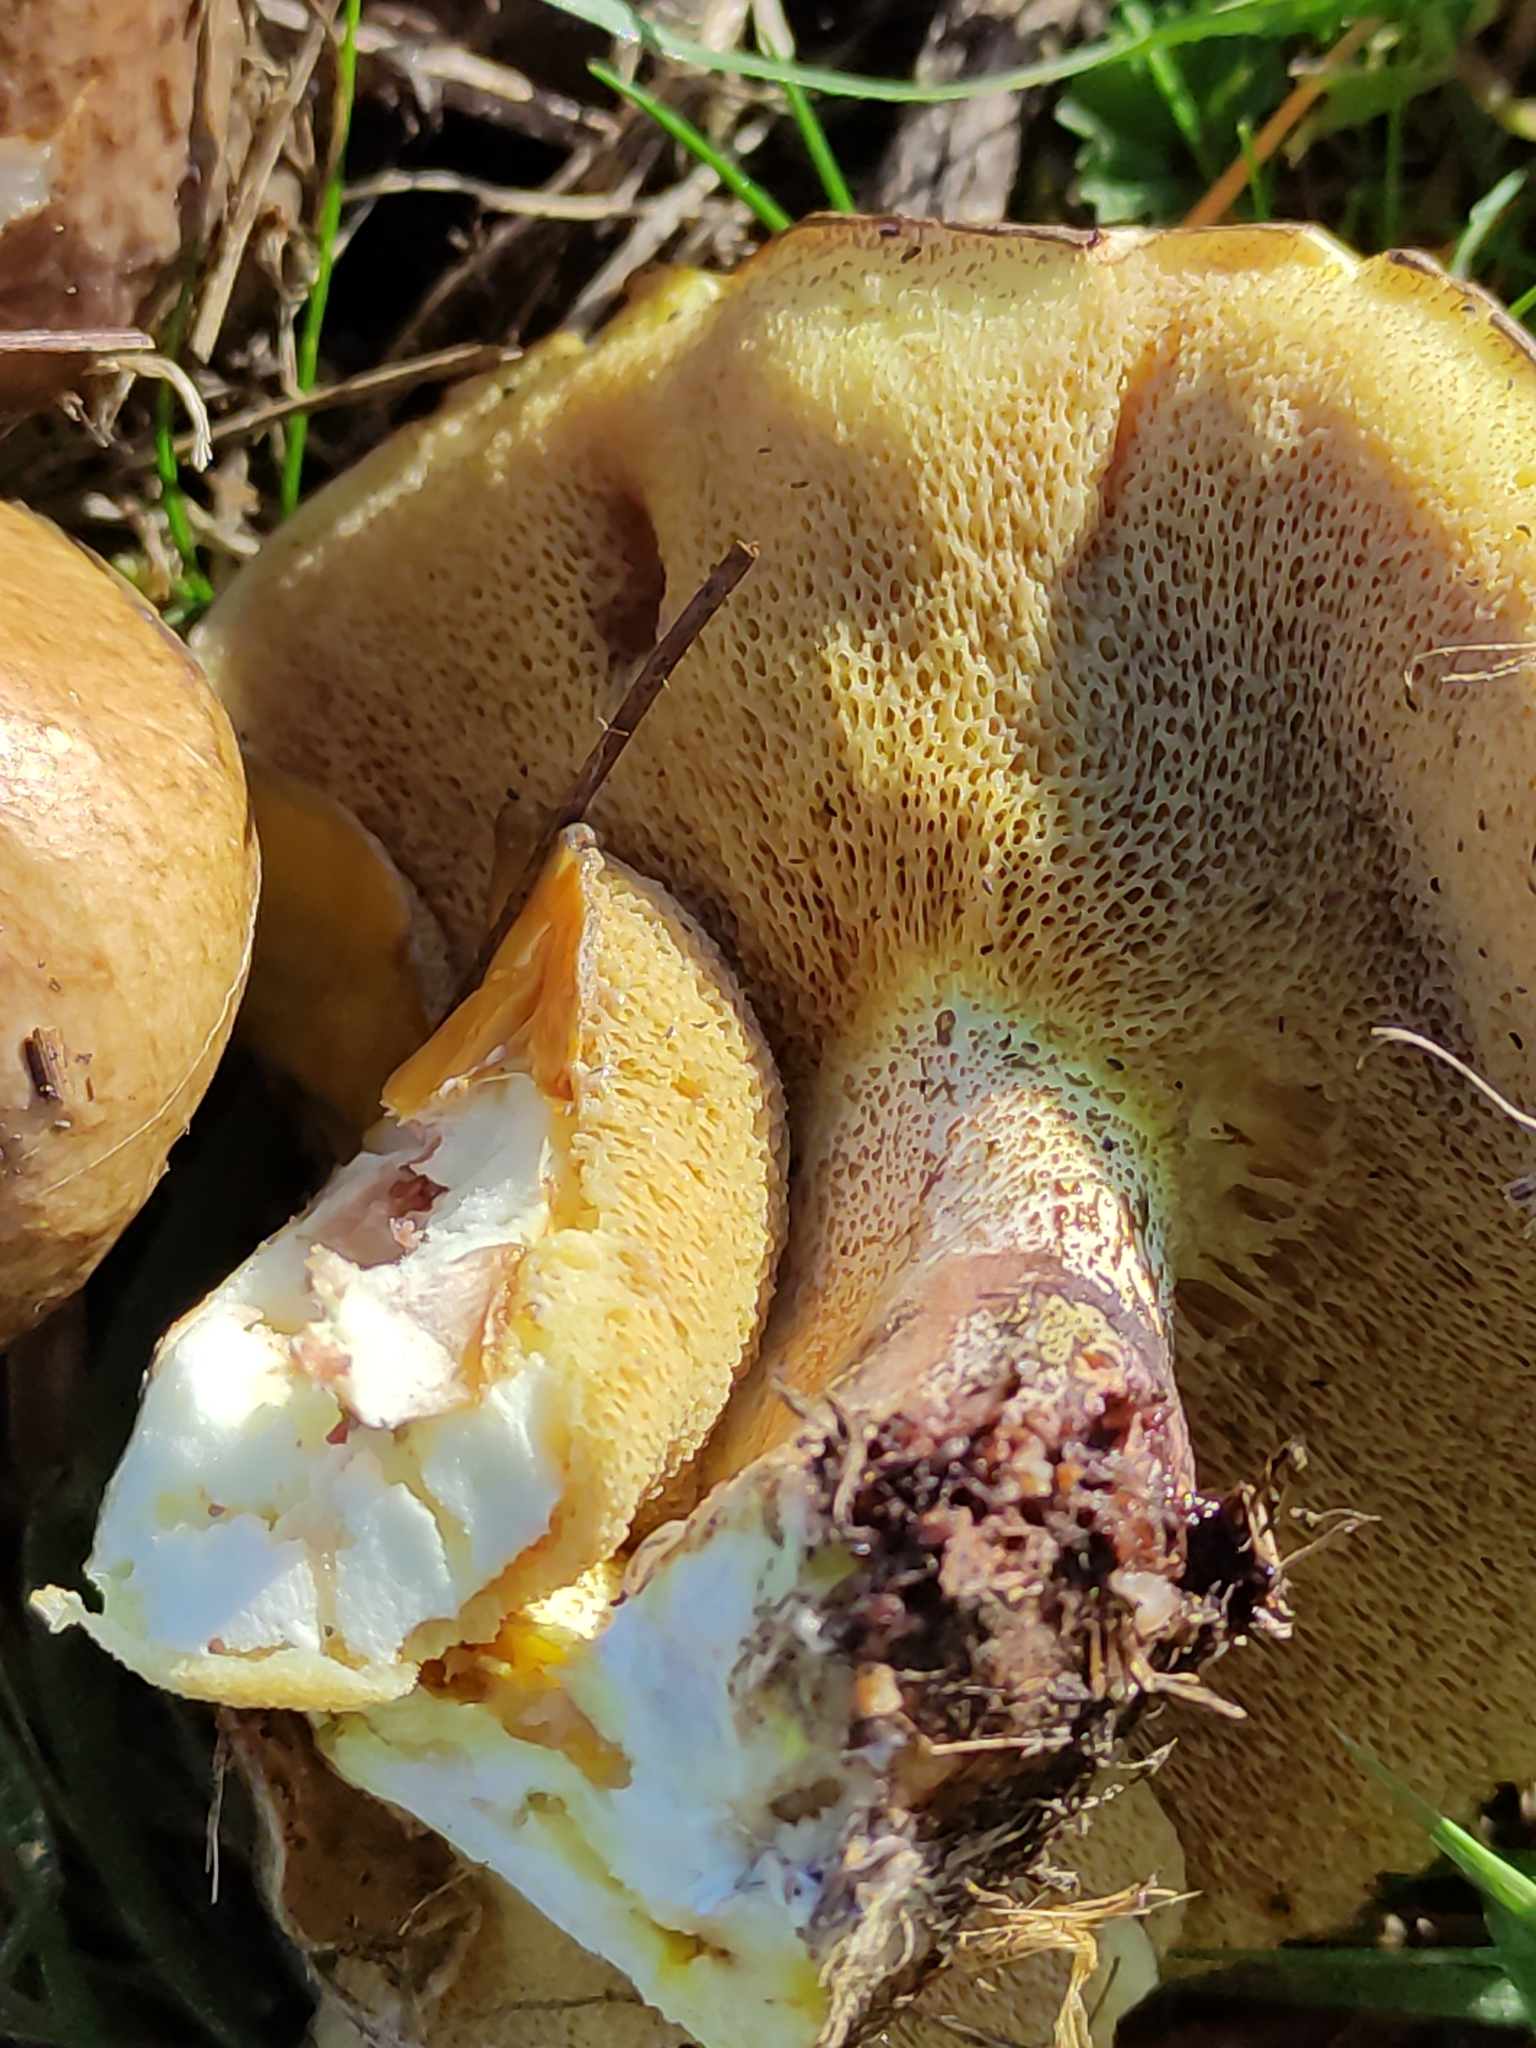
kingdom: Fungi
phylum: Basidiomycota
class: Agaricomycetes
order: Boletales
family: Suillaceae
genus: Suillus
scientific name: Suillus granulatus
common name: Weeping bolete
